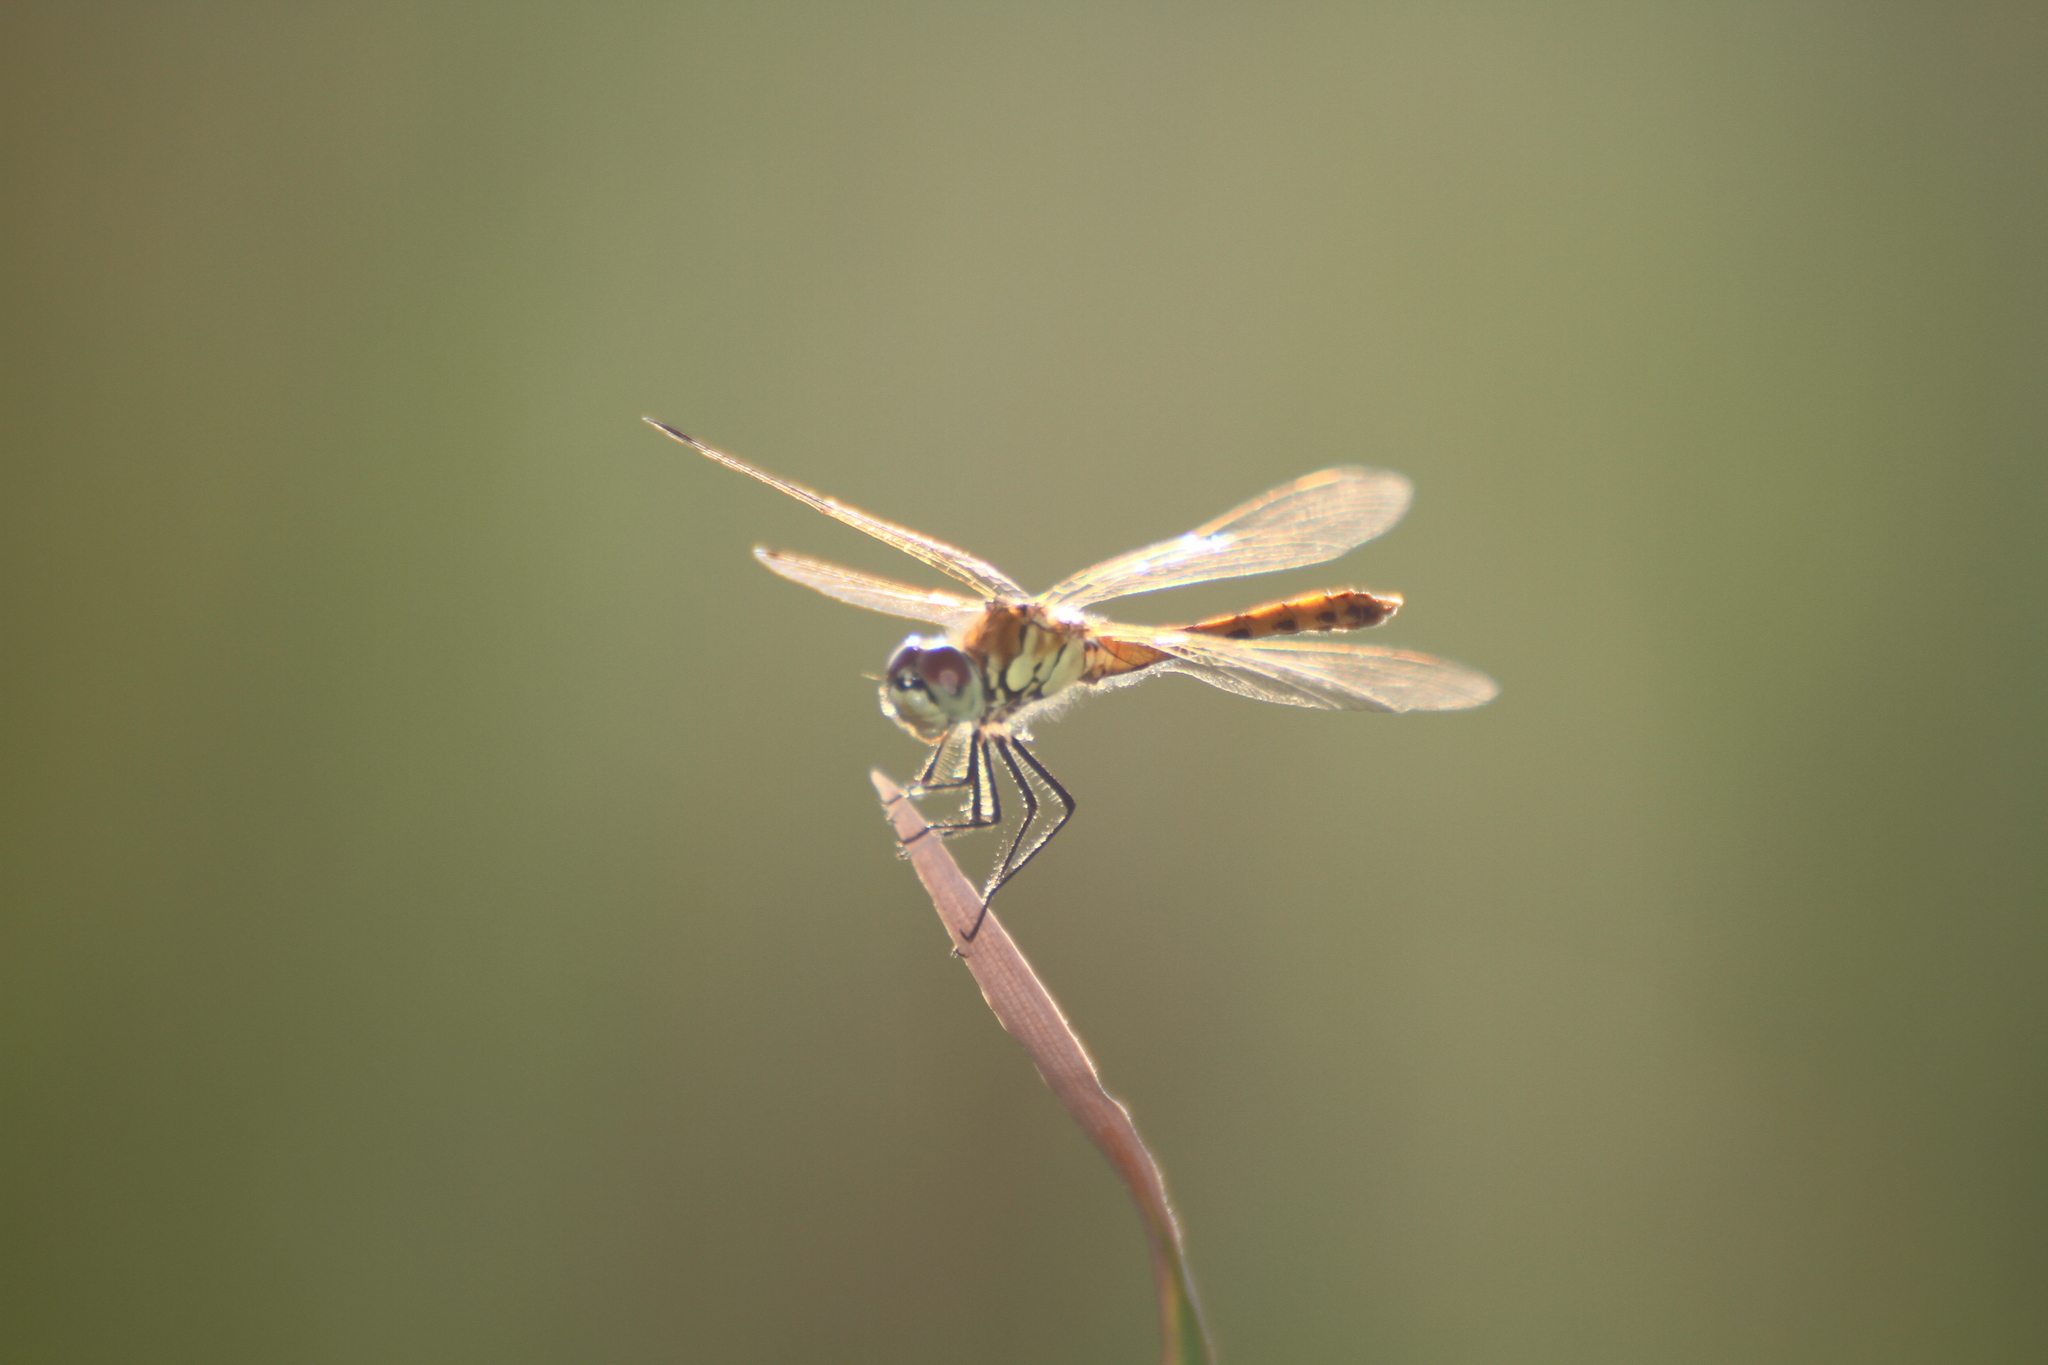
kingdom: Animalia
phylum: Arthropoda
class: Insecta
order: Odonata
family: Libellulidae
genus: Sympetrum
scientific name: Sympetrum depressiusculum
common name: Spotted darter
